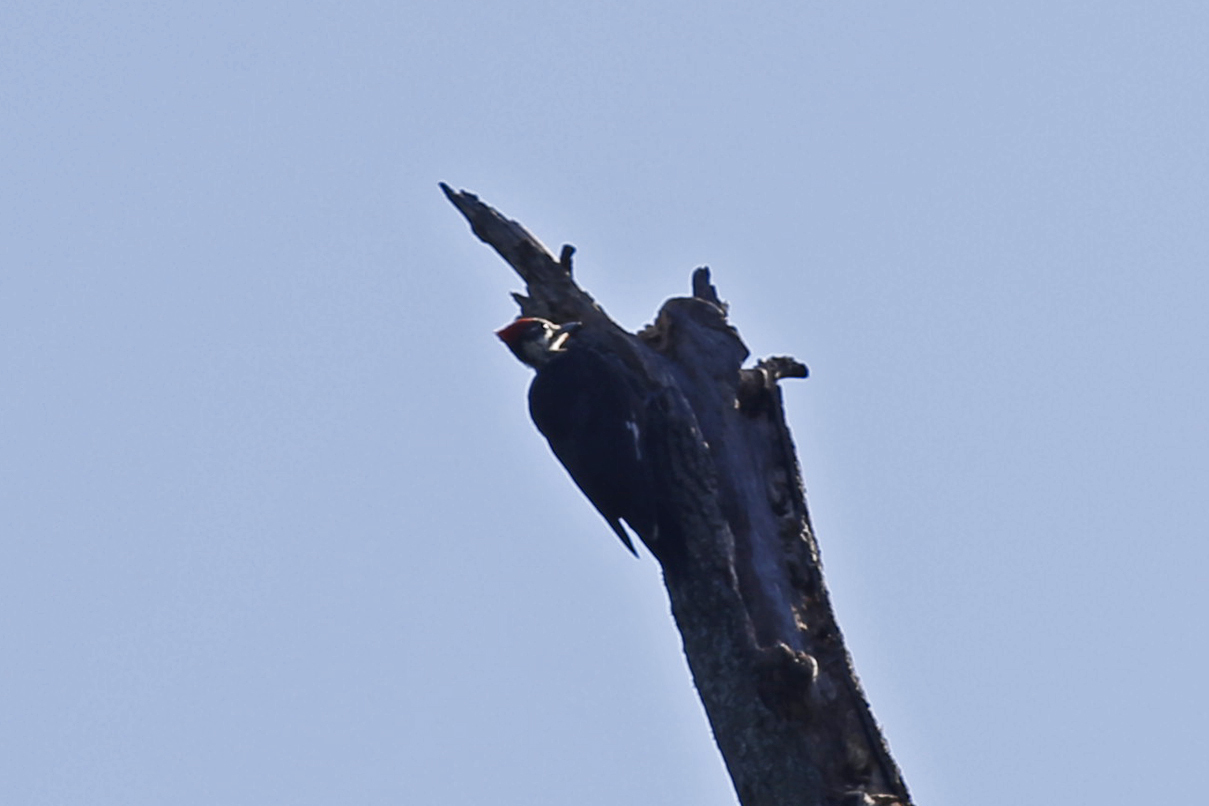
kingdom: Animalia
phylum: Chordata
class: Aves
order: Piciformes
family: Picidae
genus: Dryocopus
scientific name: Dryocopus pileatus
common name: Pileated woodpecker
